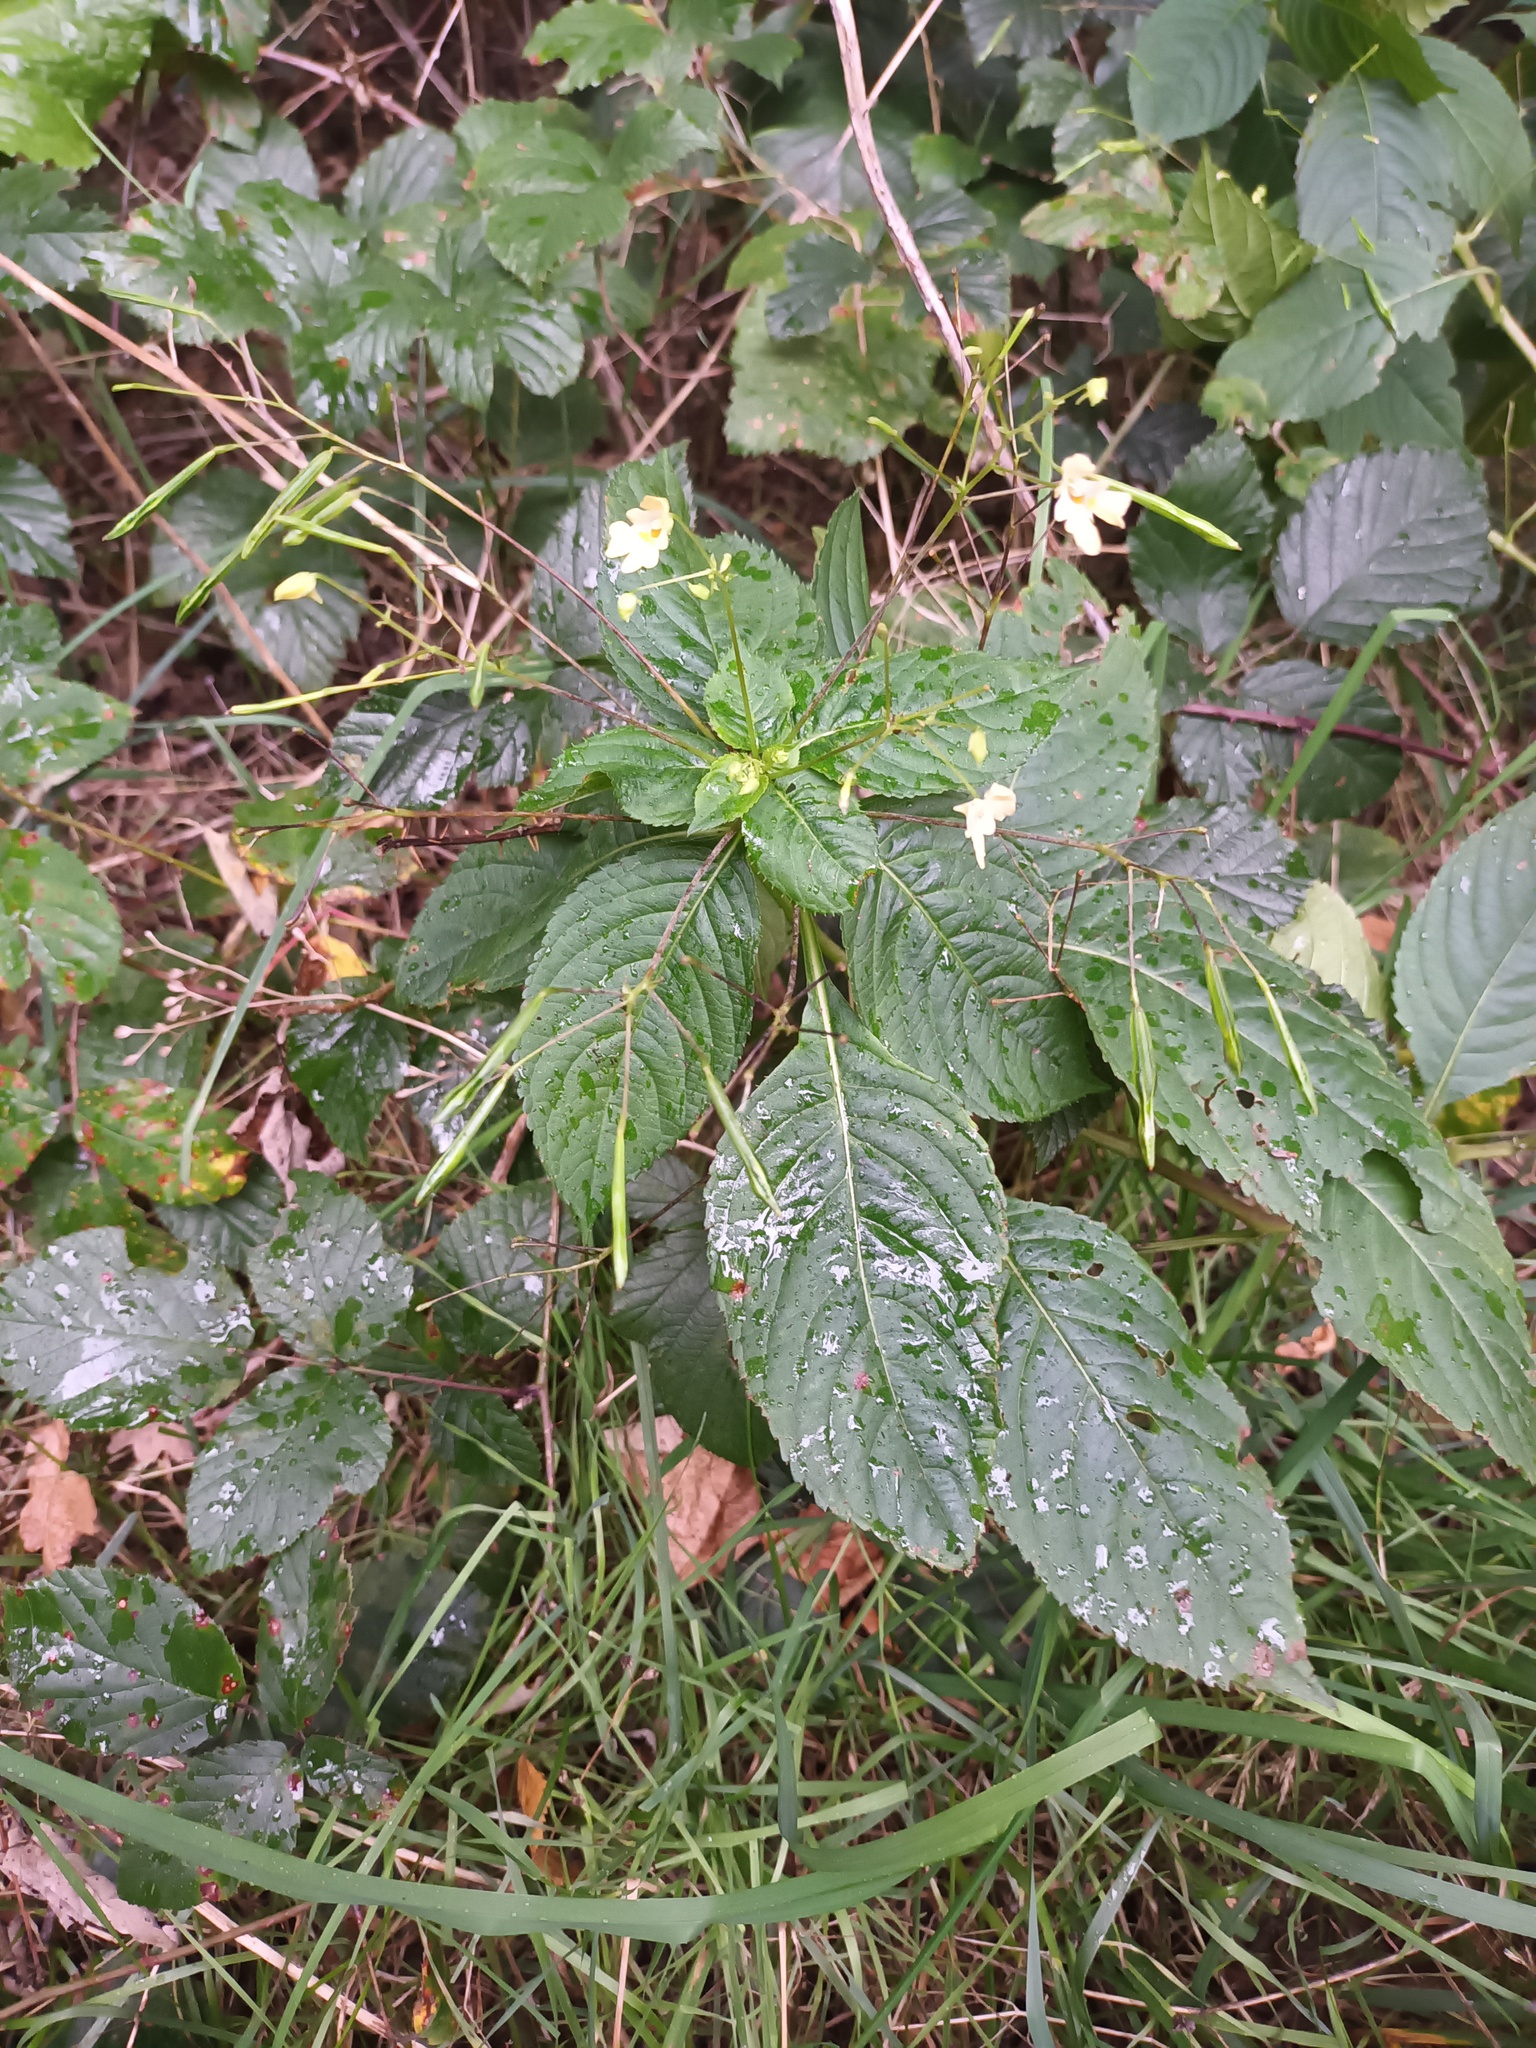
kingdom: Plantae
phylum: Tracheophyta
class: Magnoliopsida
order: Ericales
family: Balsaminaceae
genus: Impatiens
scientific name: Impatiens parviflora
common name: Small balsam
